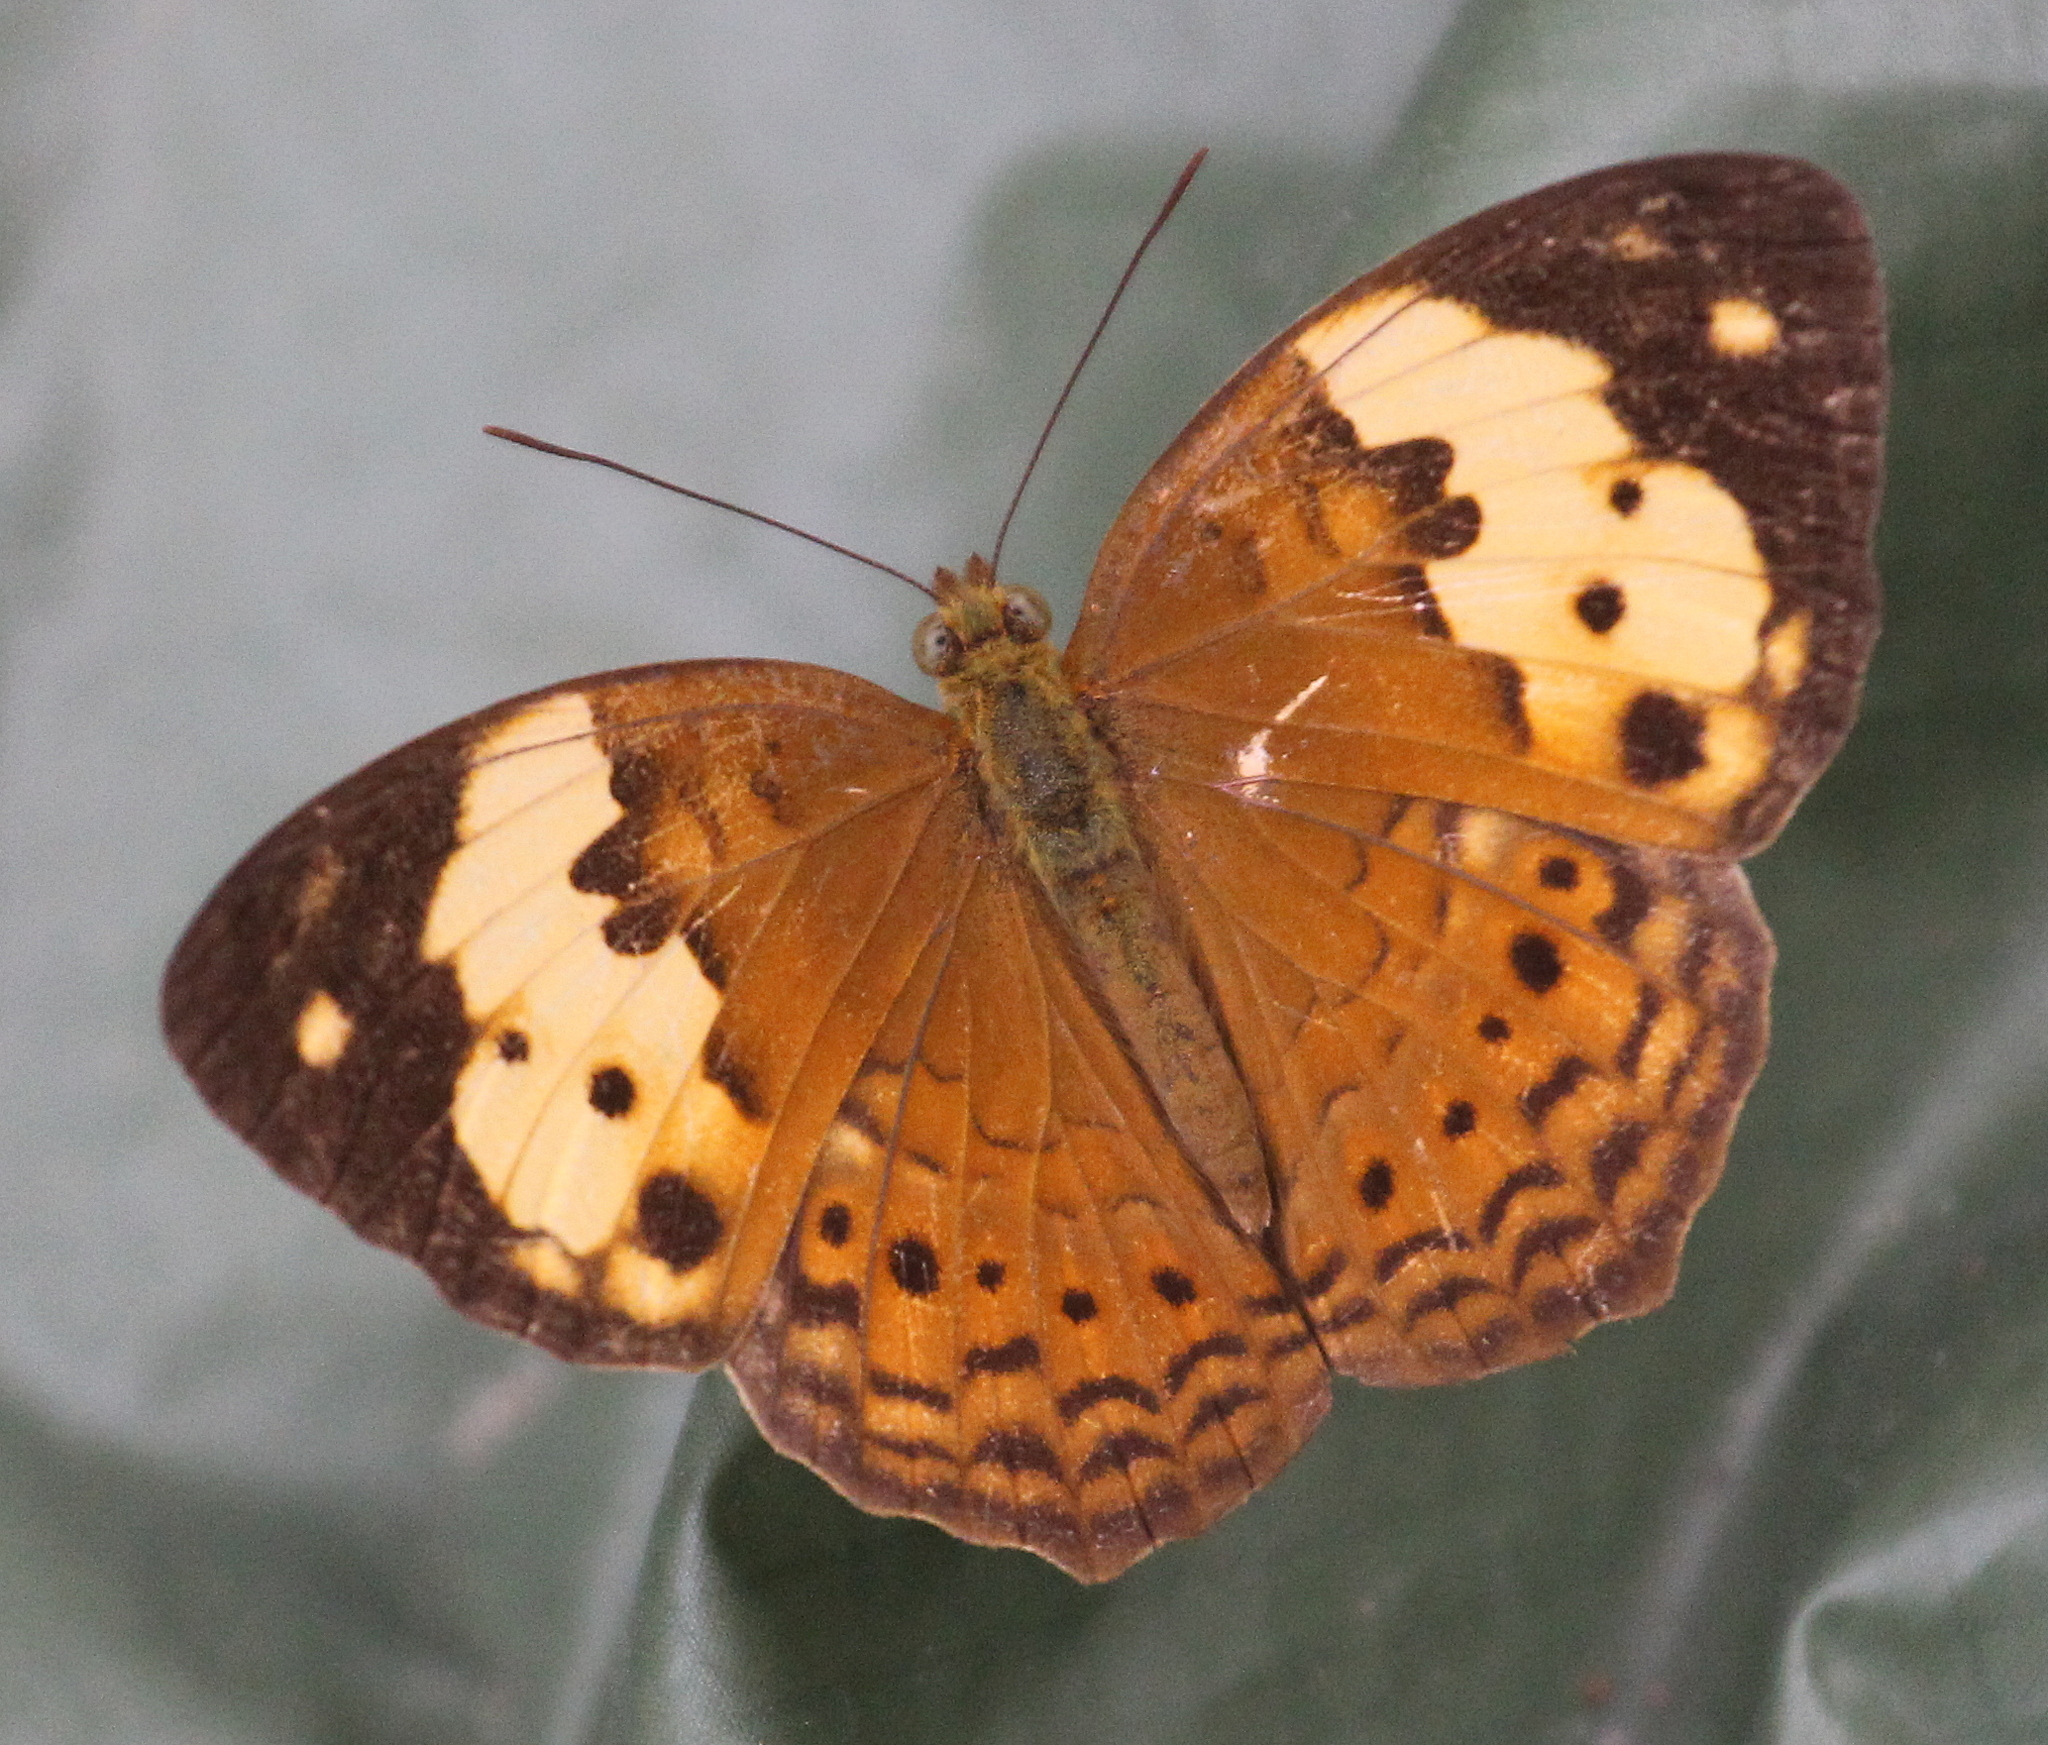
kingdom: Animalia
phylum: Arthropoda
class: Insecta
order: Lepidoptera
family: Nymphalidae
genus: Cupha
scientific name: Cupha erymanthis
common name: Rustic
